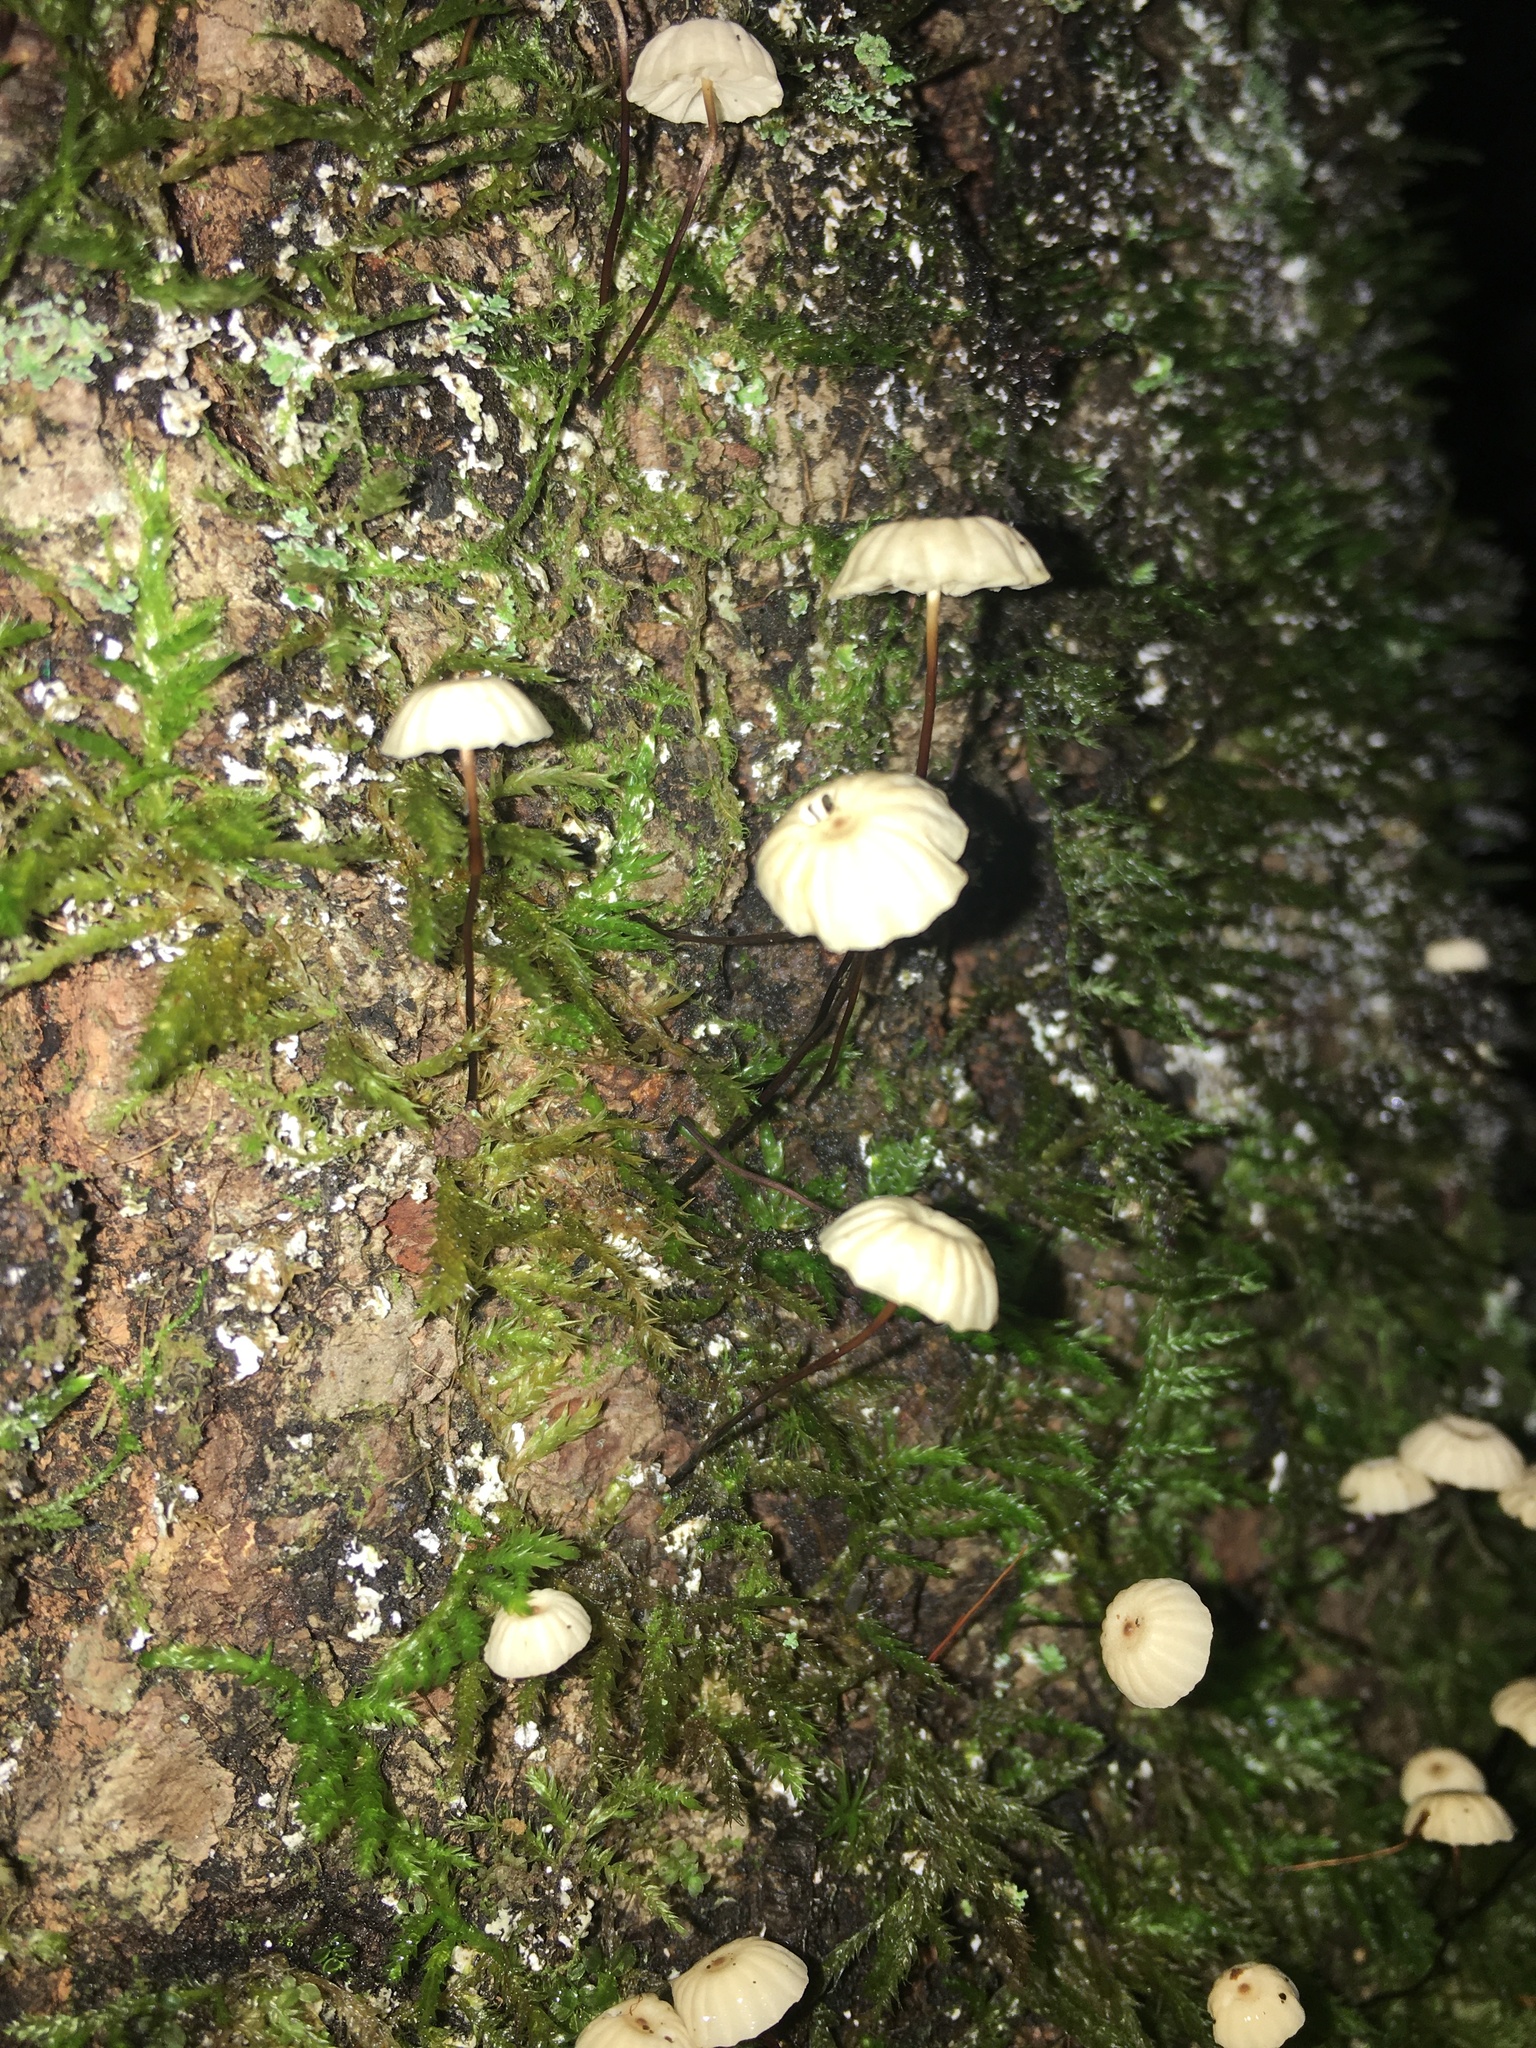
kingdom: Fungi
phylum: Basidiomycota
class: Agaricomycetes
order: Agaricales
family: Marasmiaceae
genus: Marasmius
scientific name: Marasmius rotula
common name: Collared parachute
